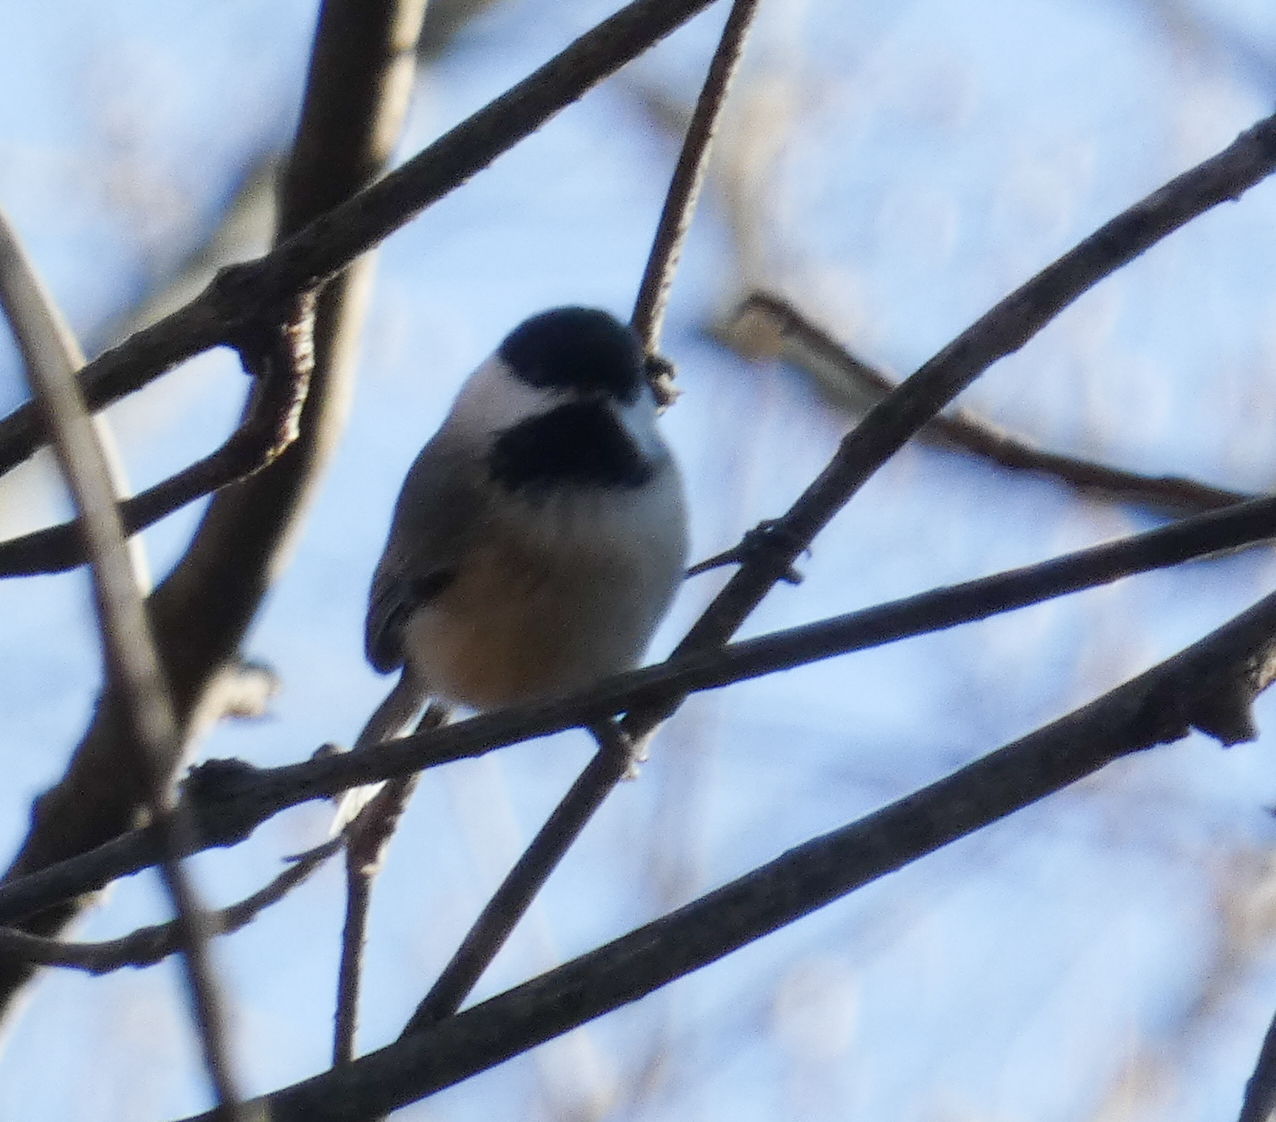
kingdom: Animalia
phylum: Chordata
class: Aves
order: Passeriformes
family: Paridae
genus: Poecile
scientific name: Poecile carolinensis
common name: Carolina chickadee
